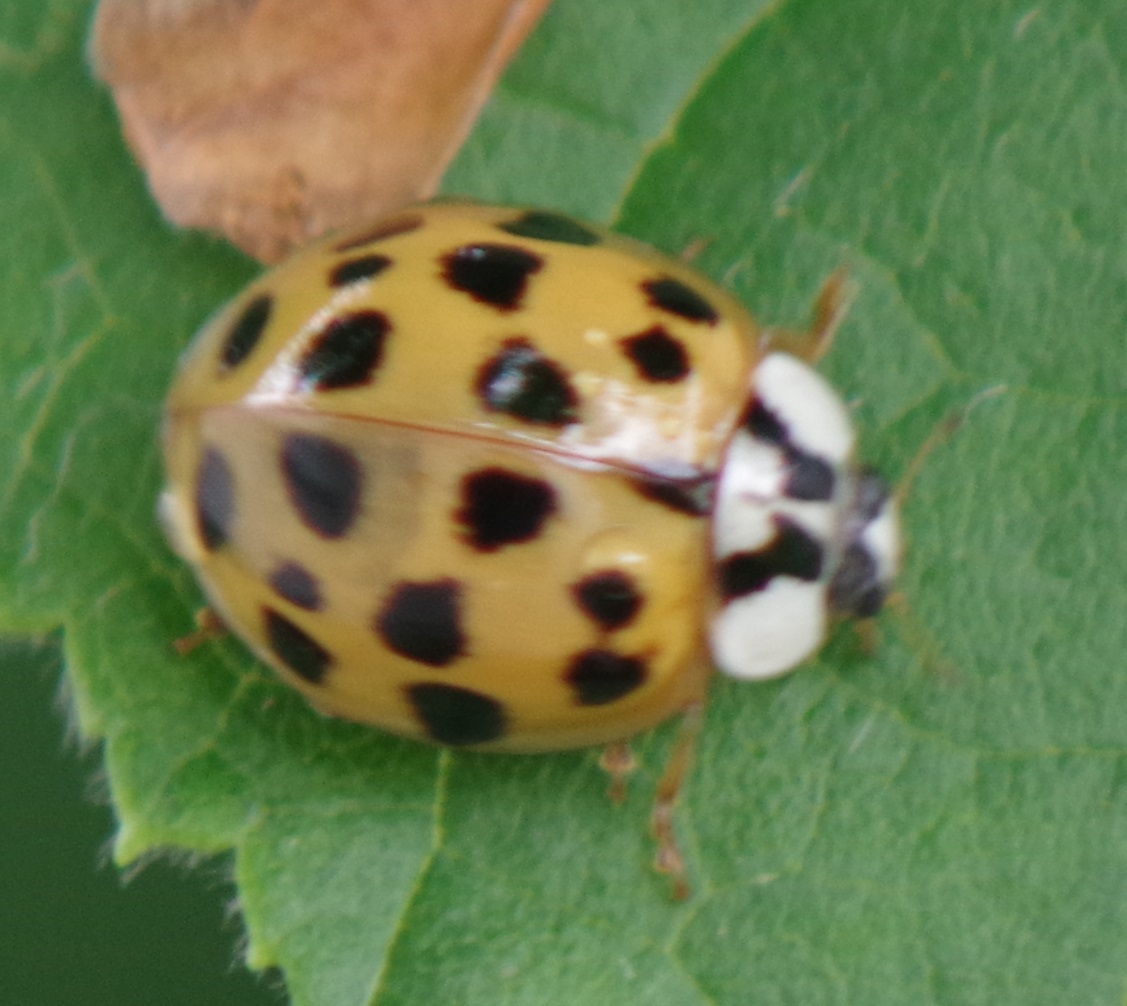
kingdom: Animalia
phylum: Arthropoda
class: Insecta
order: Coleoptera
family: Coccinellidae
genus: Harmonia
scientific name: Harmonia axyridis
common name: Harlequin ladybird
